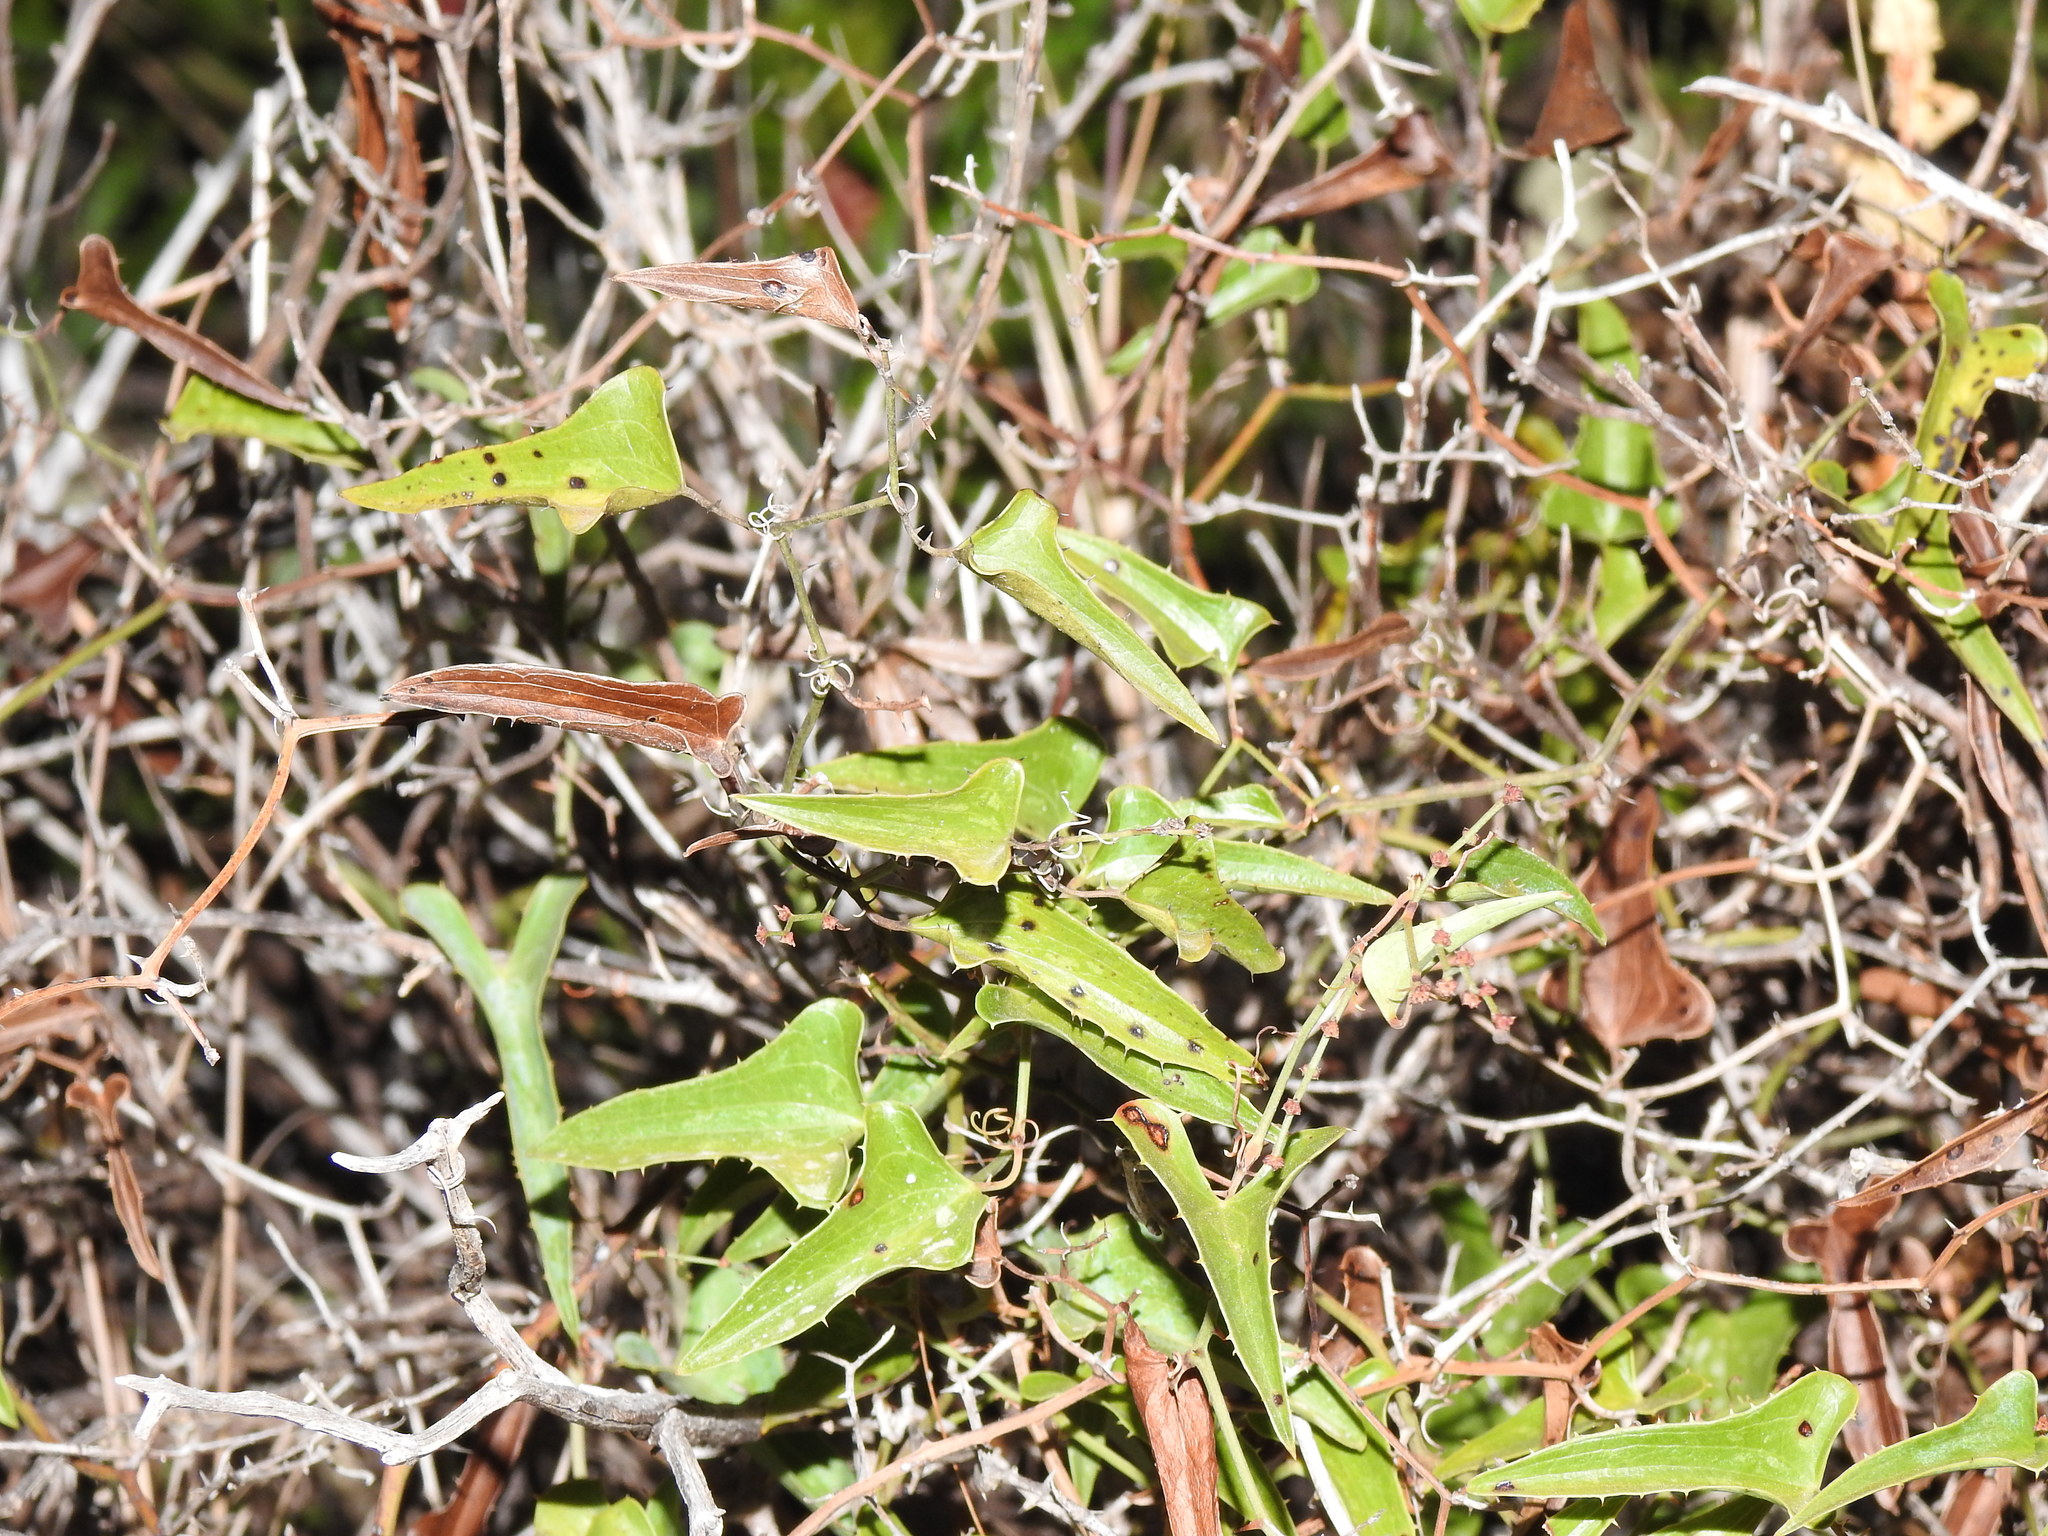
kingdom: Plantae
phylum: Tracheophyta
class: Liliopsida
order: Liliales
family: Smilacaceae
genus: Smilax
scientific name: Smilax aspera
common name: Common smilax
